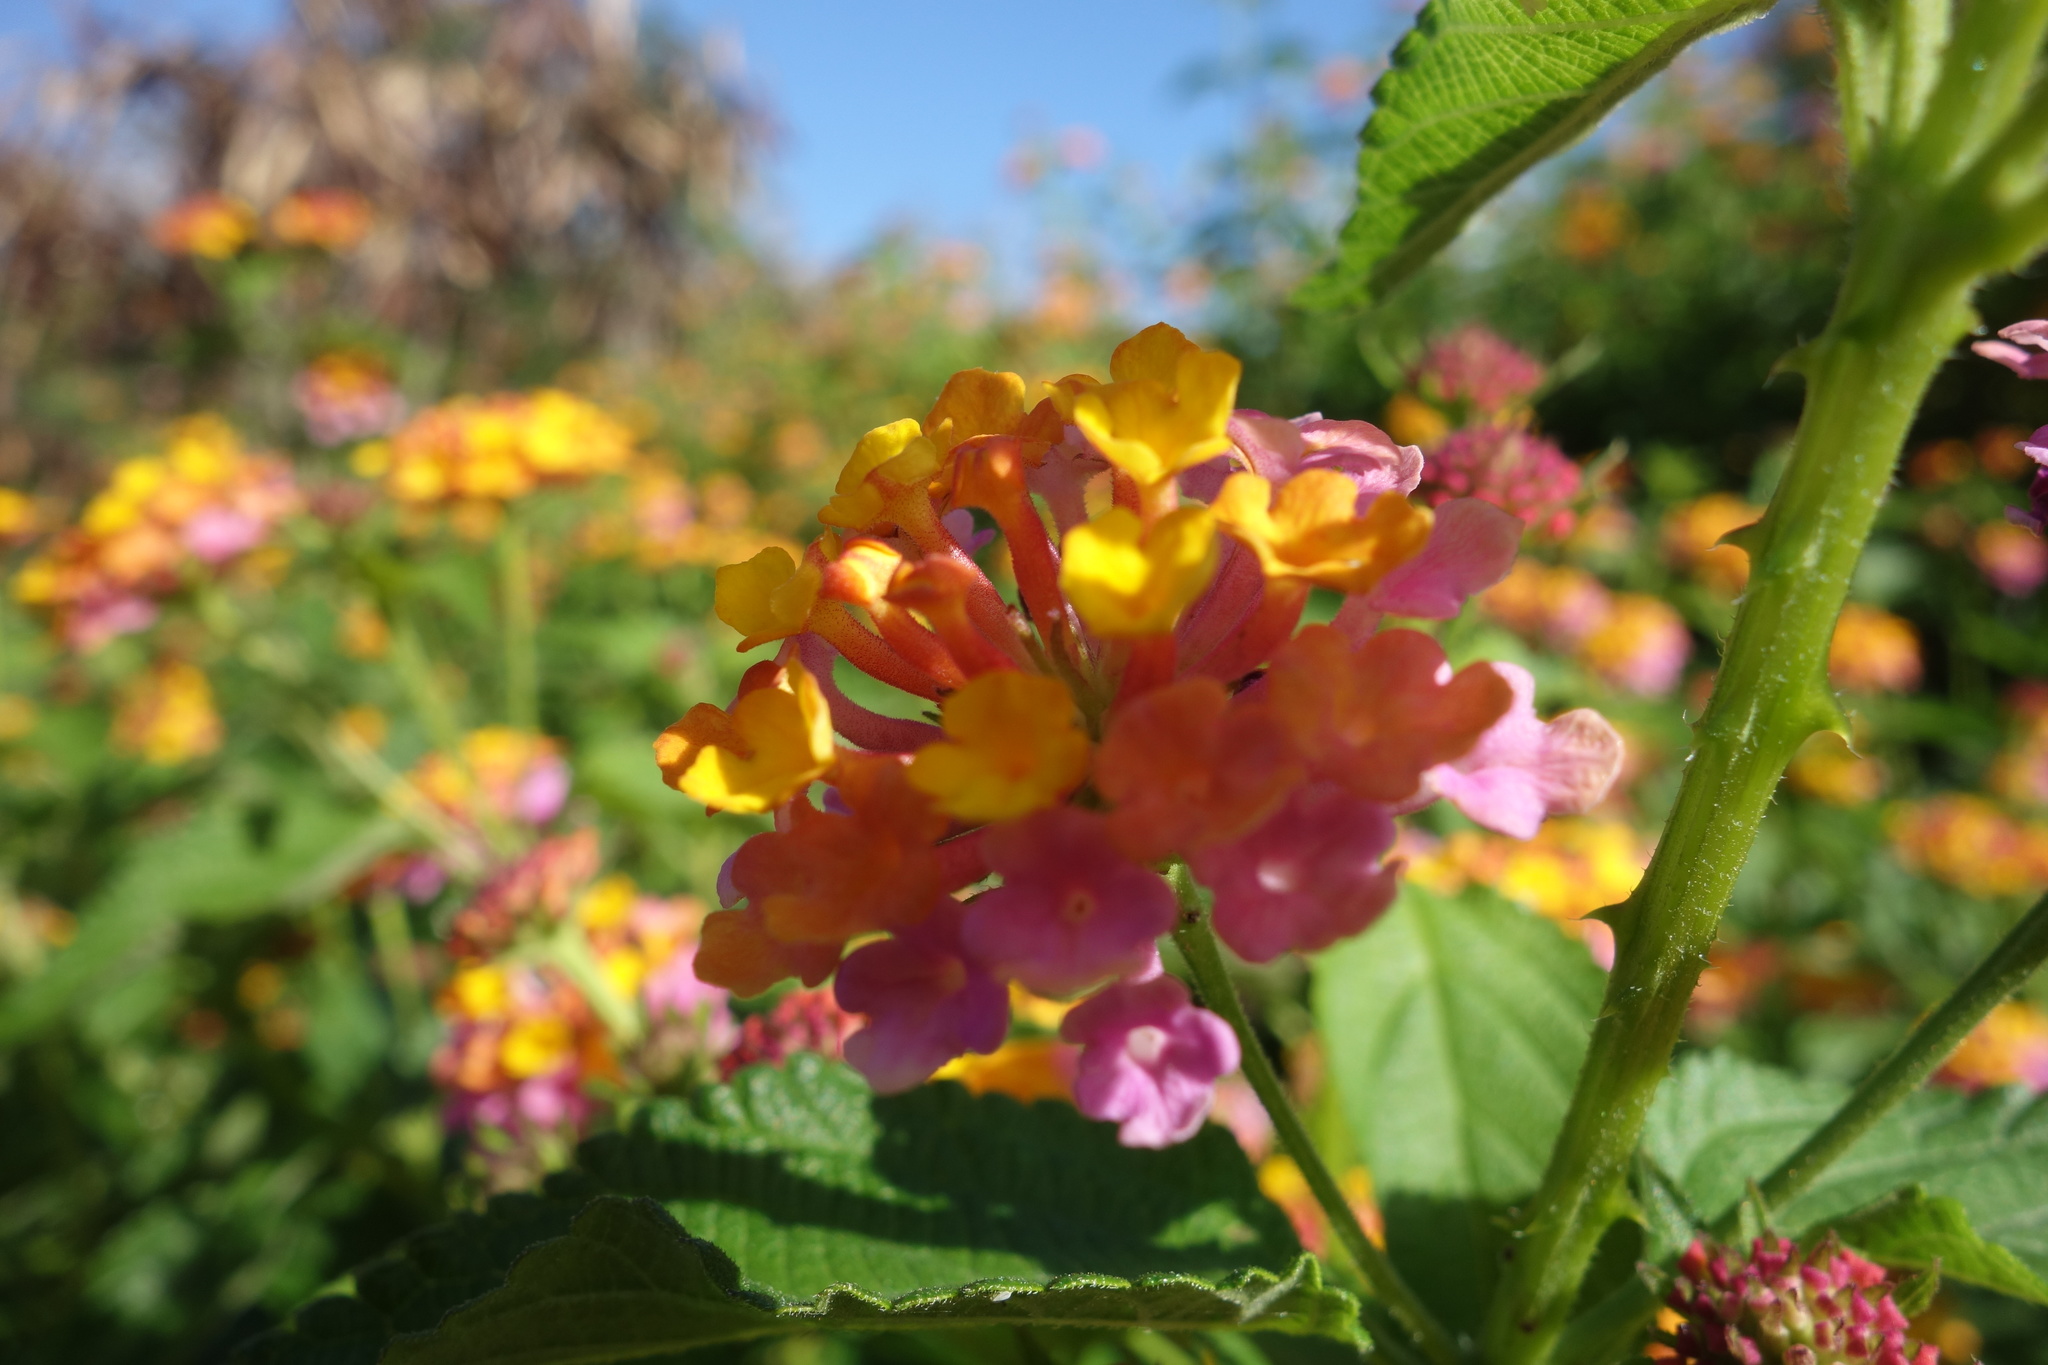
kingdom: Plantae
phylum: Tracheophyta
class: Magnoliopsida
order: Lamiales
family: Verbenaceae
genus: Lantana
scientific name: Lantana camara
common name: Lantana
